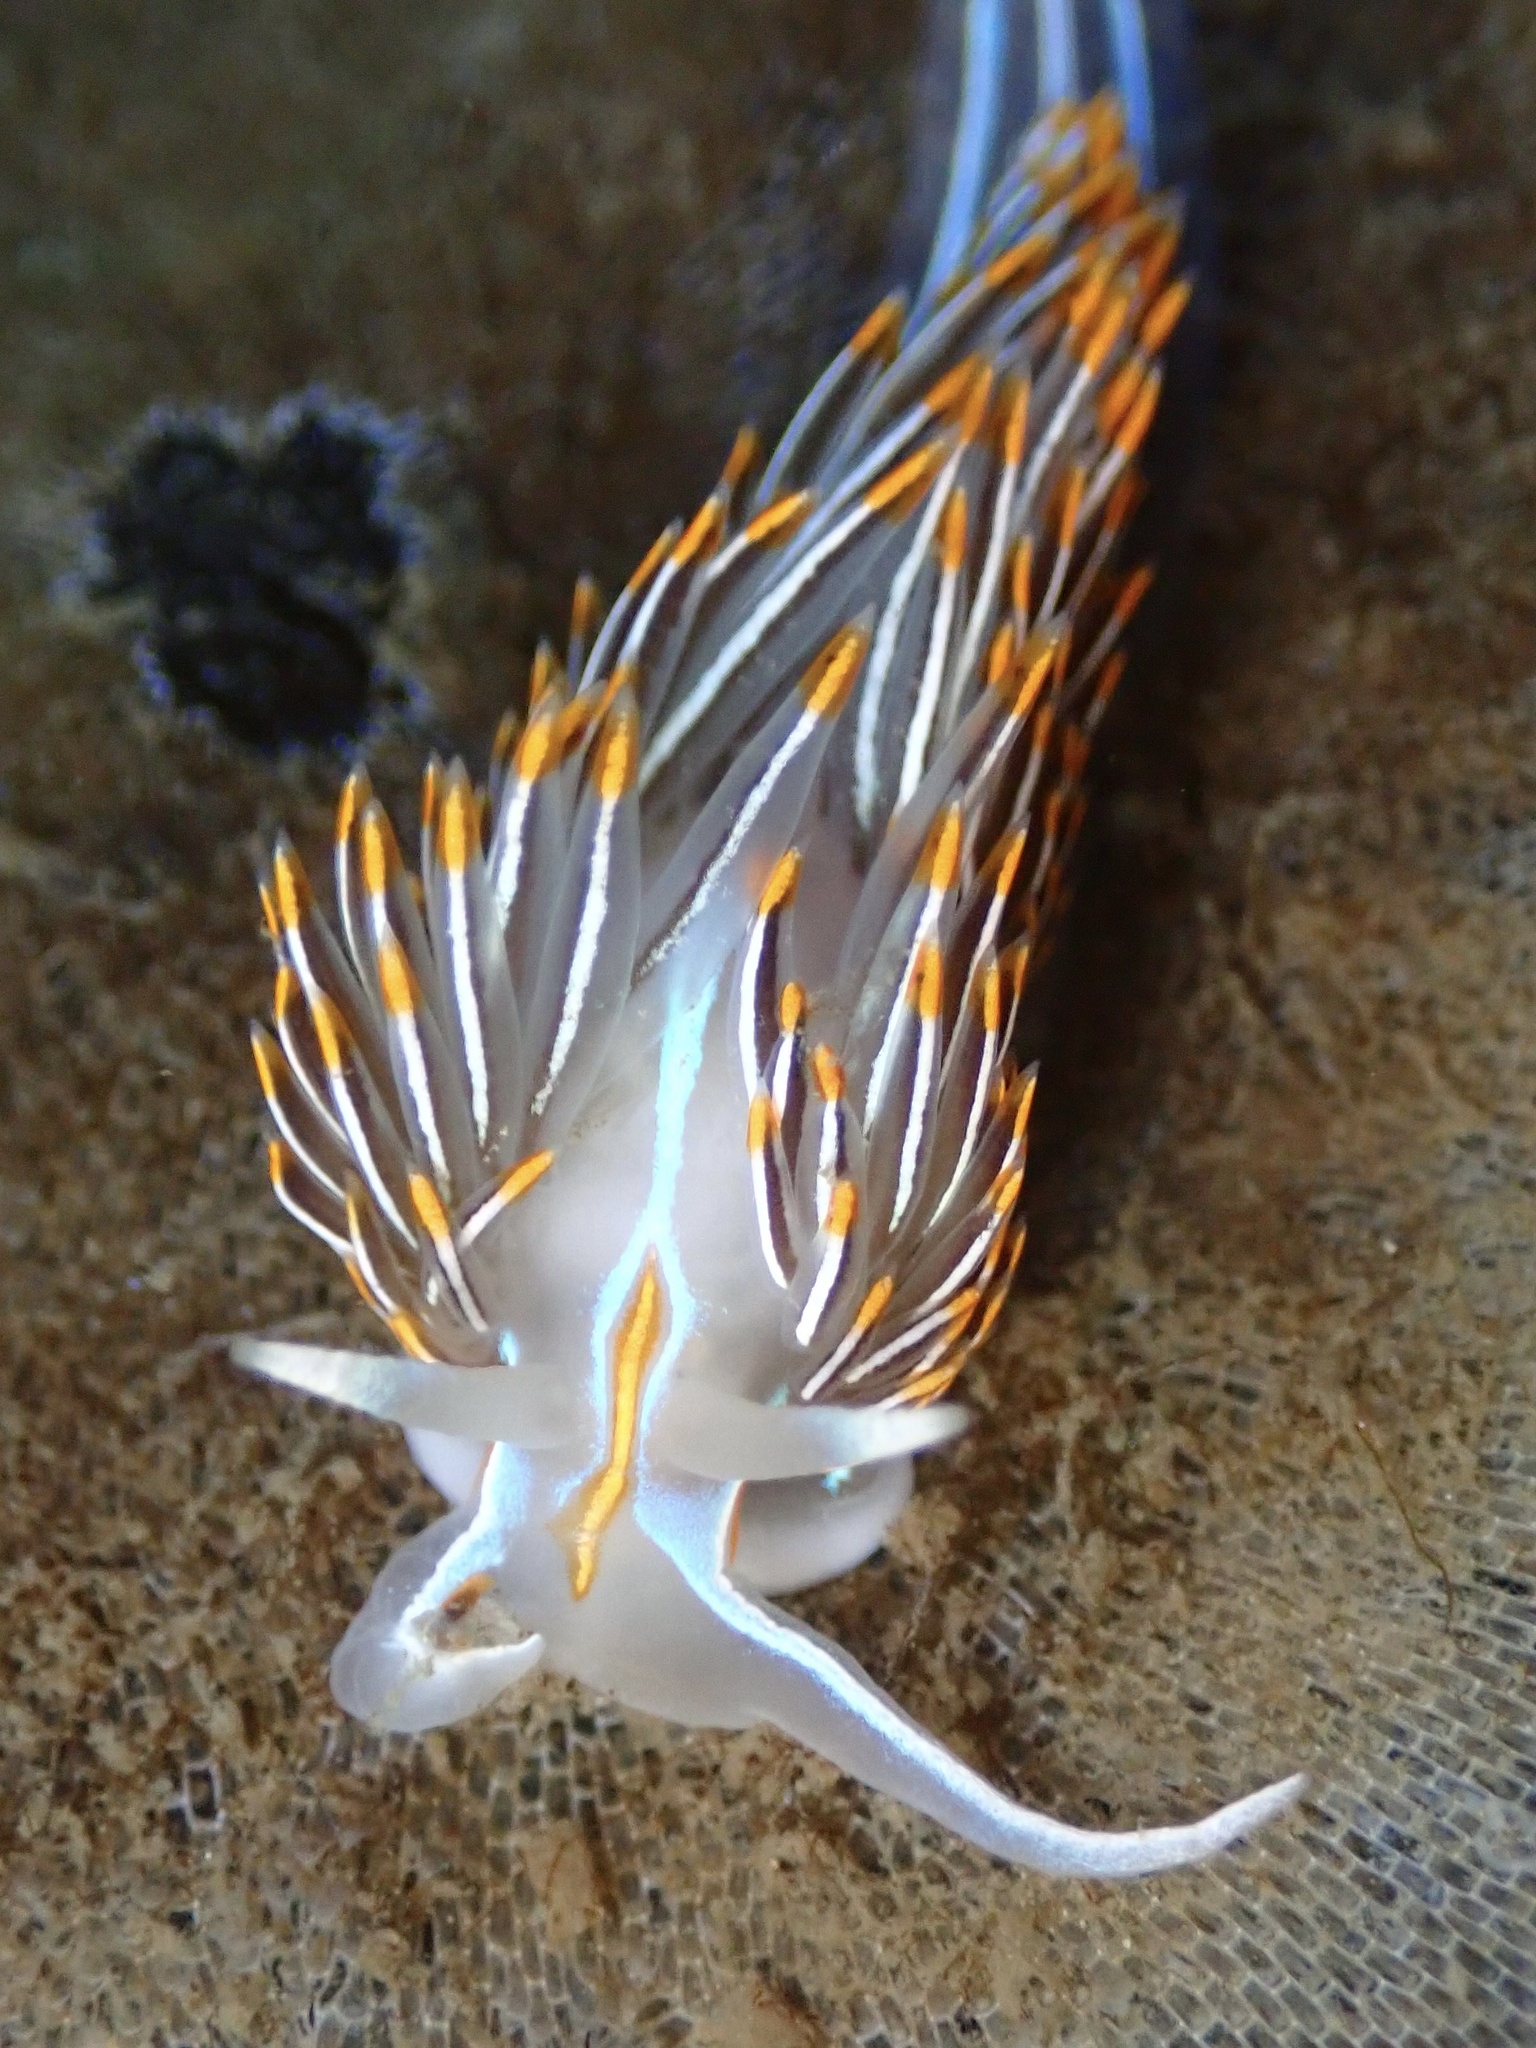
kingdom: Animalia
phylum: Mollusca
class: Gastropoda
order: Nudibranchia
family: Myrrhinidae
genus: Hermissenda
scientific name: Hermissenda crassicornis
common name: Hermissenda
